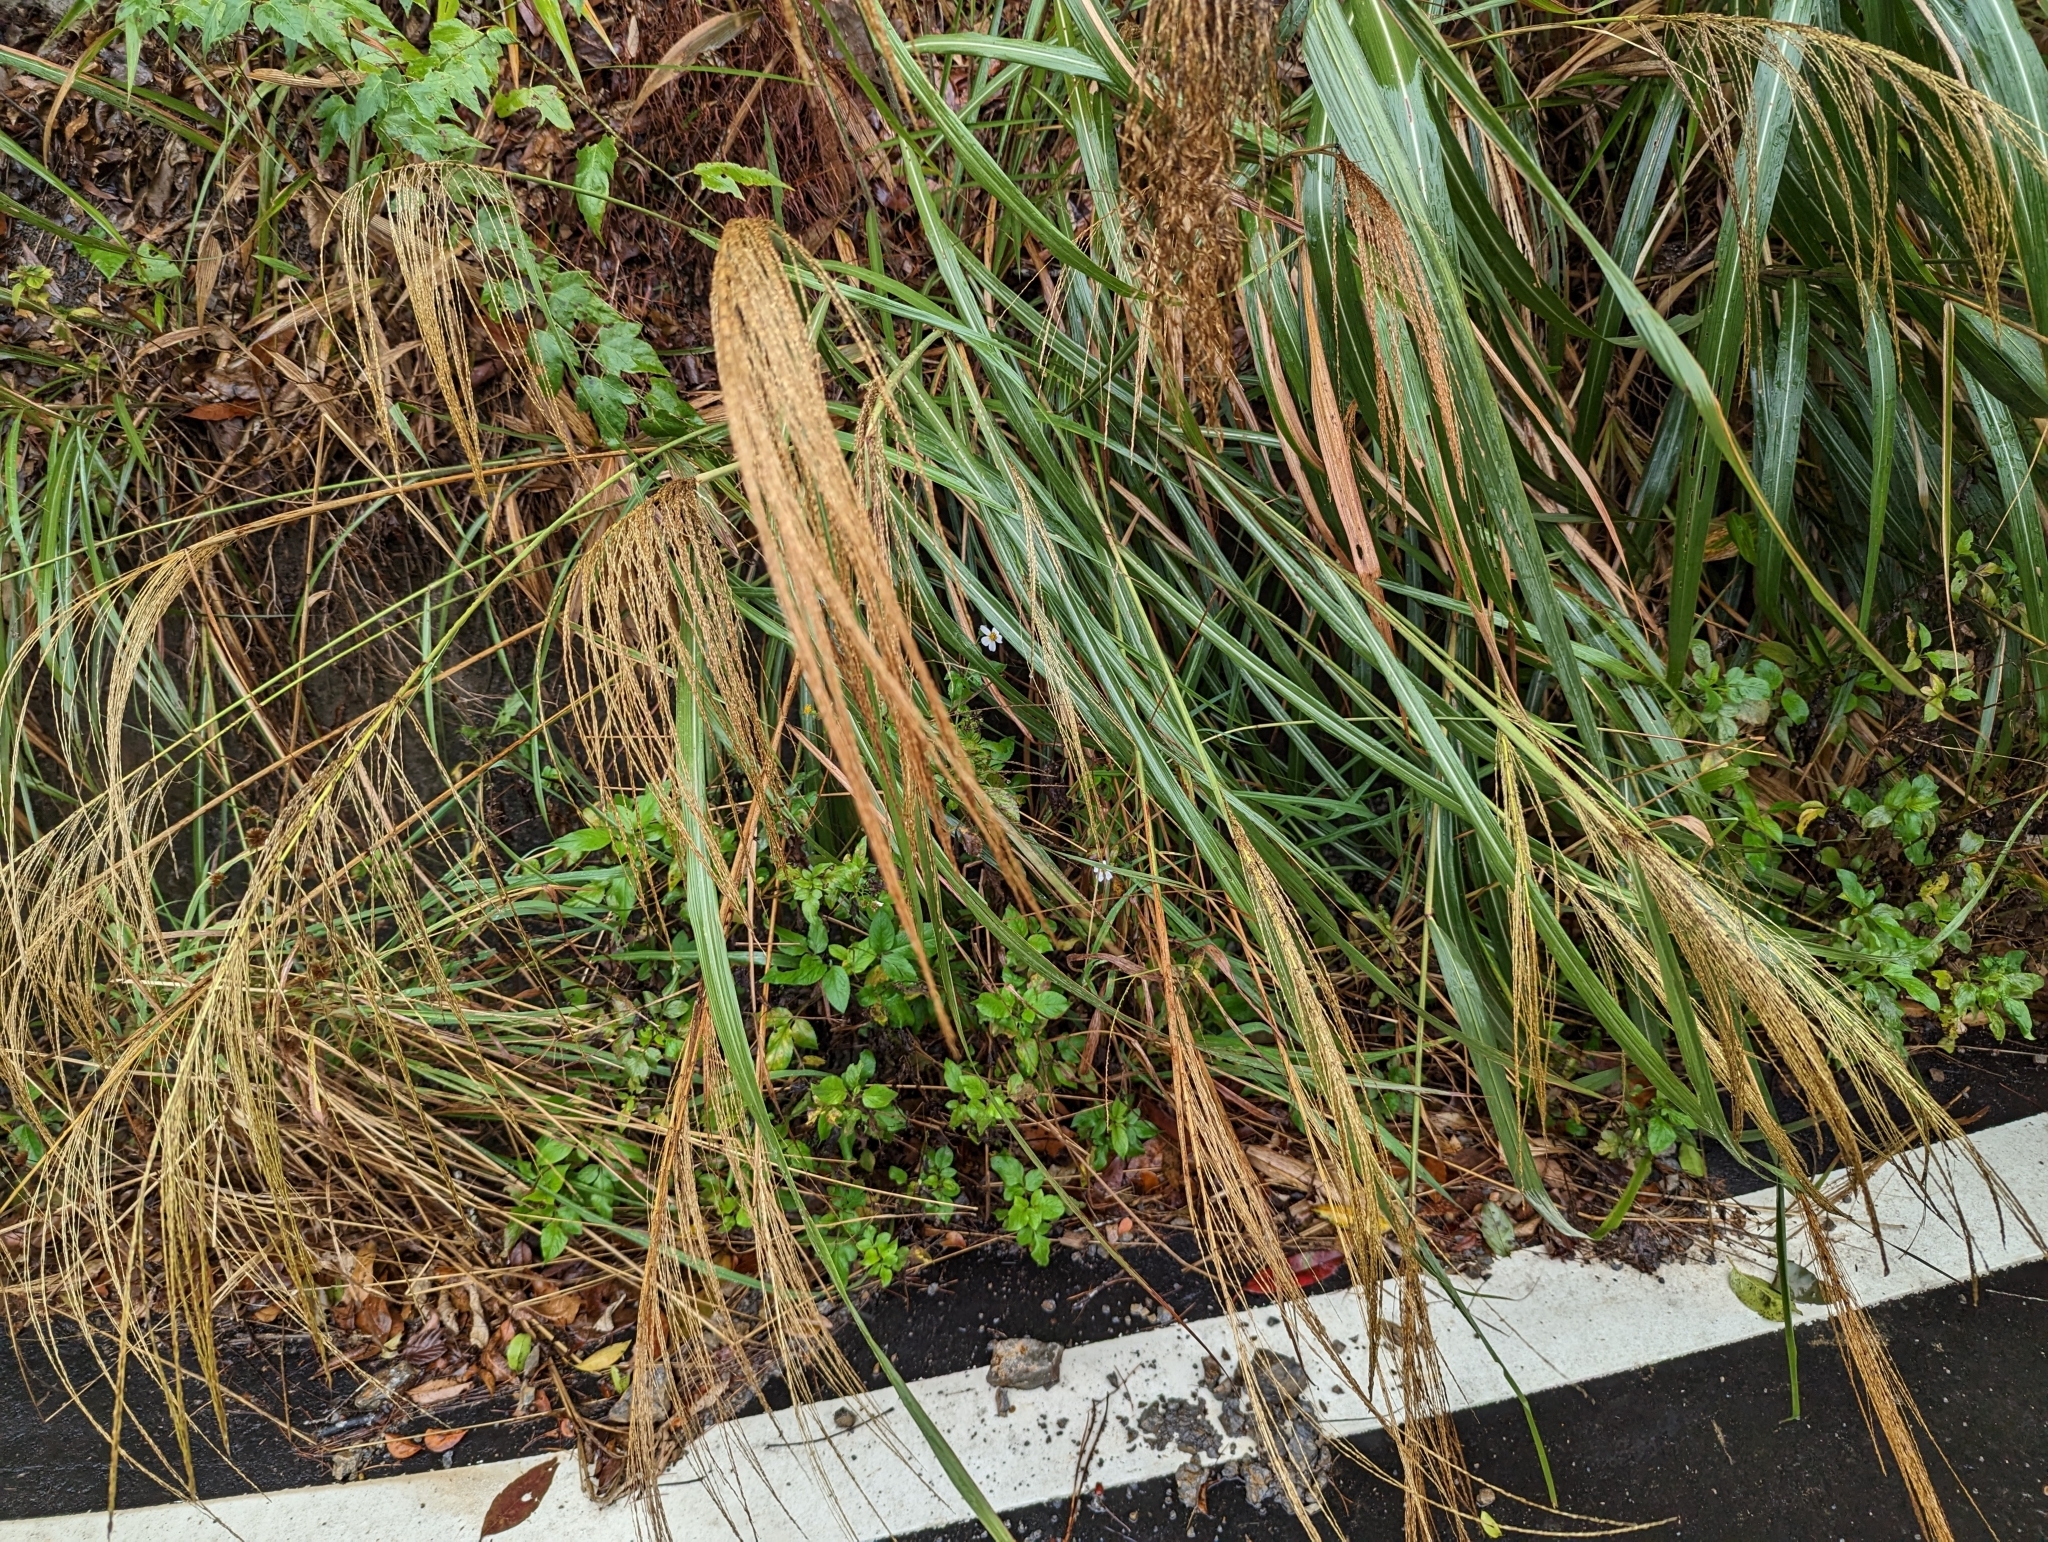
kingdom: Plantae
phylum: Tracheophyta
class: Liliopsida
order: Poales
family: Poaceae
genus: Miscanthus
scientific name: Miscanthus sinensis
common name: Chinese silvergrass
